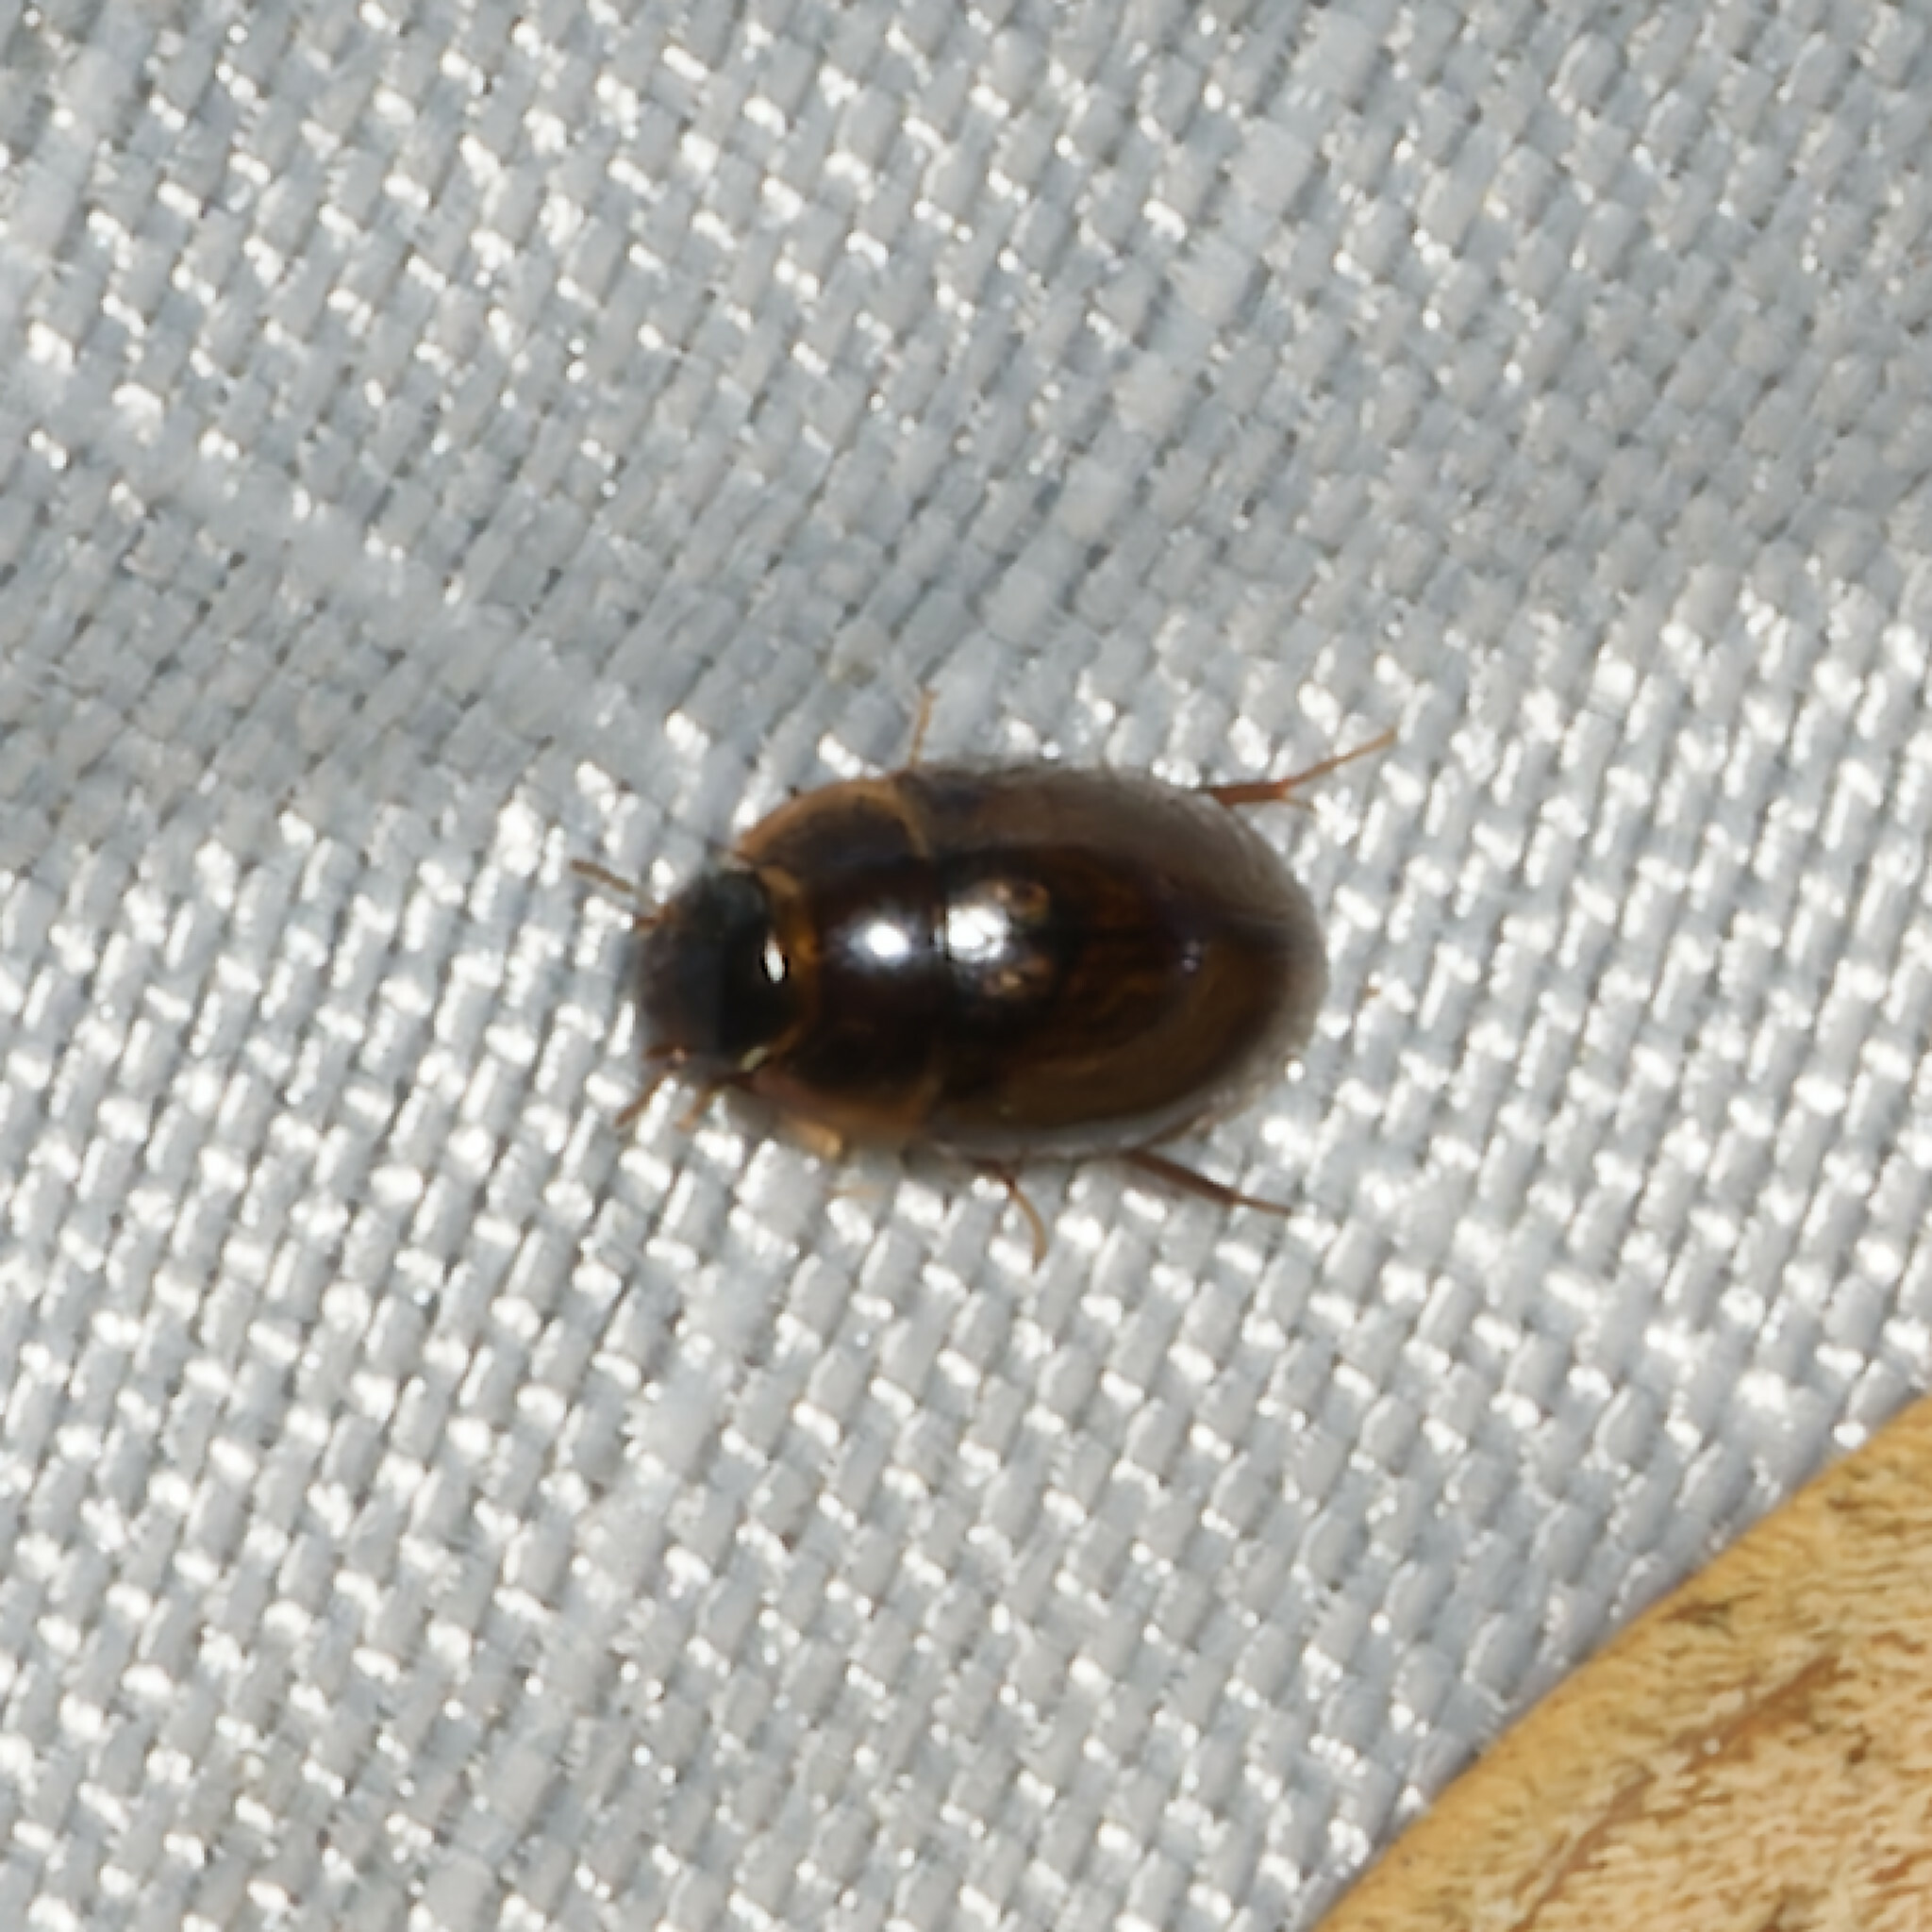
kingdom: Animalia
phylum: Arthropoda
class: Insecta
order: Coleoptera
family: Hydrophilidae
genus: Enochrus
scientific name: Enochrus
